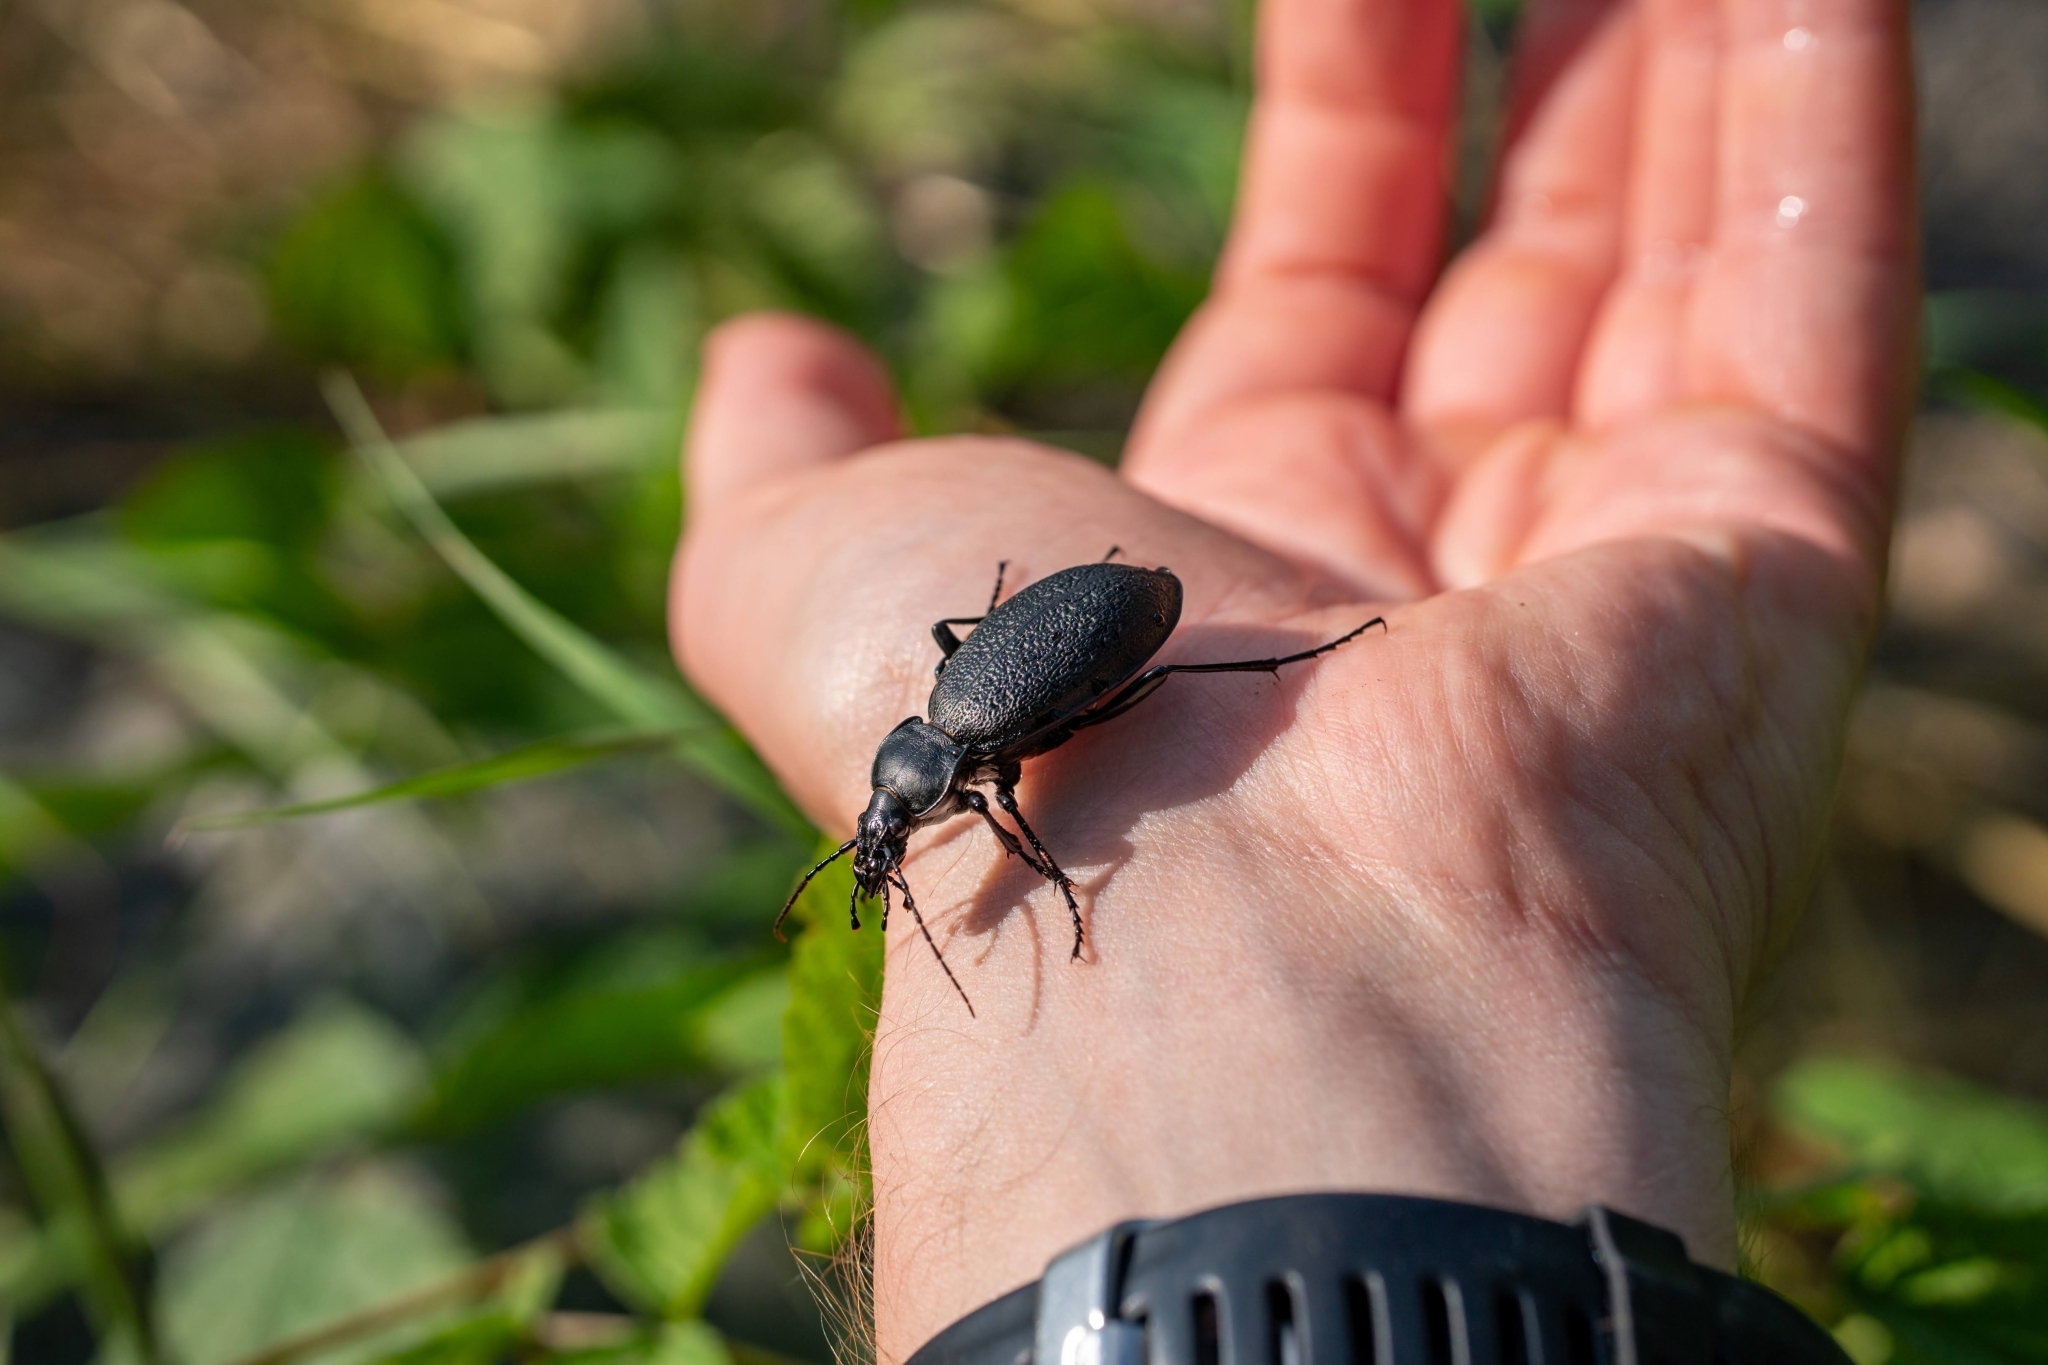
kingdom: Animalia
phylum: Arthropoda
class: Insecta
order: Coleoptera
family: Carabidae
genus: Carabus
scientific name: Carabus coriaceus
